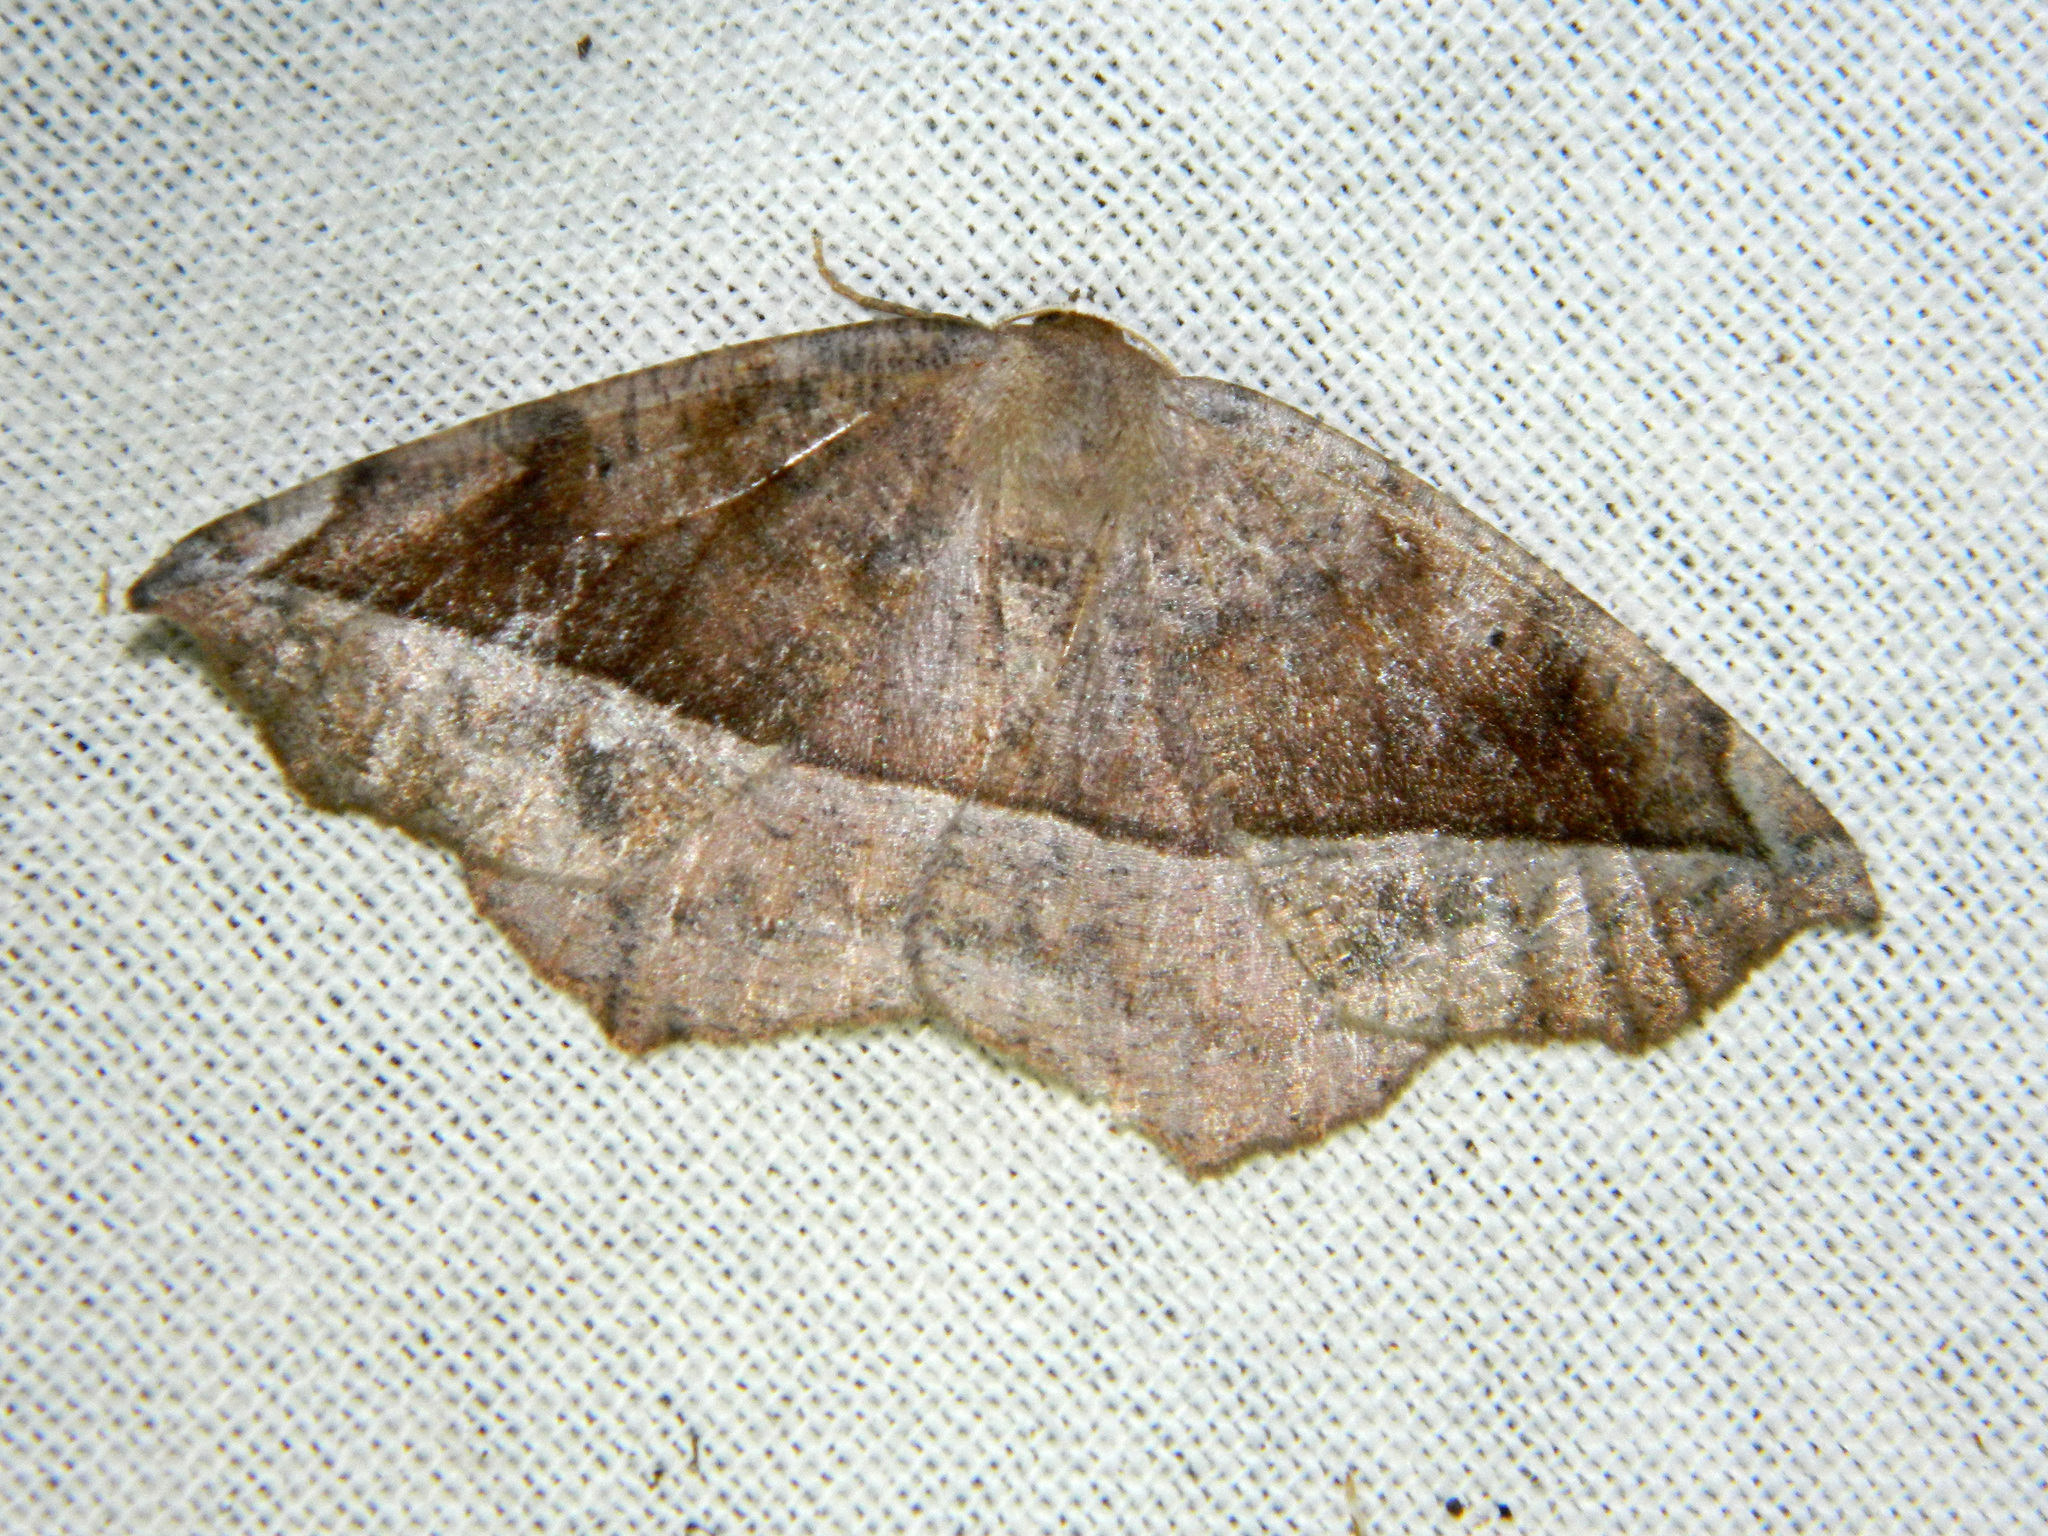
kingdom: Animalia
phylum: Arthropoda
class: Insecta
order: Lepidoptera
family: Geometridae
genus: Eutrapela
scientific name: Eutrapela clemataria
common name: Curved-toothed geometer
